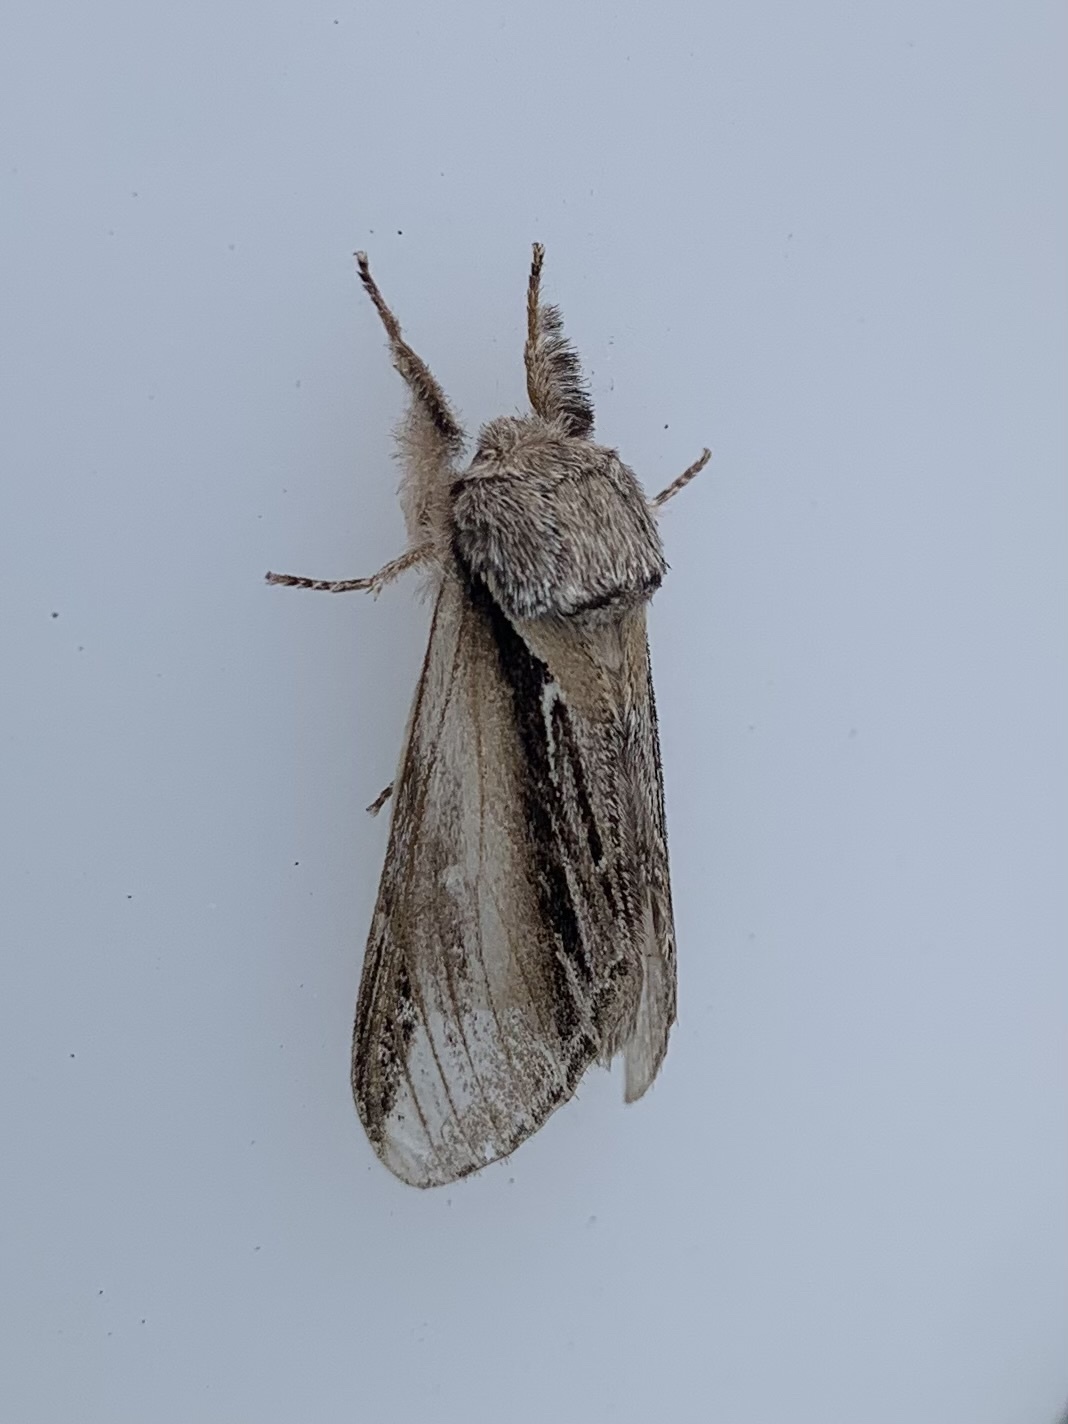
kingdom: Animalia
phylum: Arthropoda
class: Insecta
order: Lepidoptera
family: Notodontidae
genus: Pheosia
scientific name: Pheosia tremula
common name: Swallow prominent
